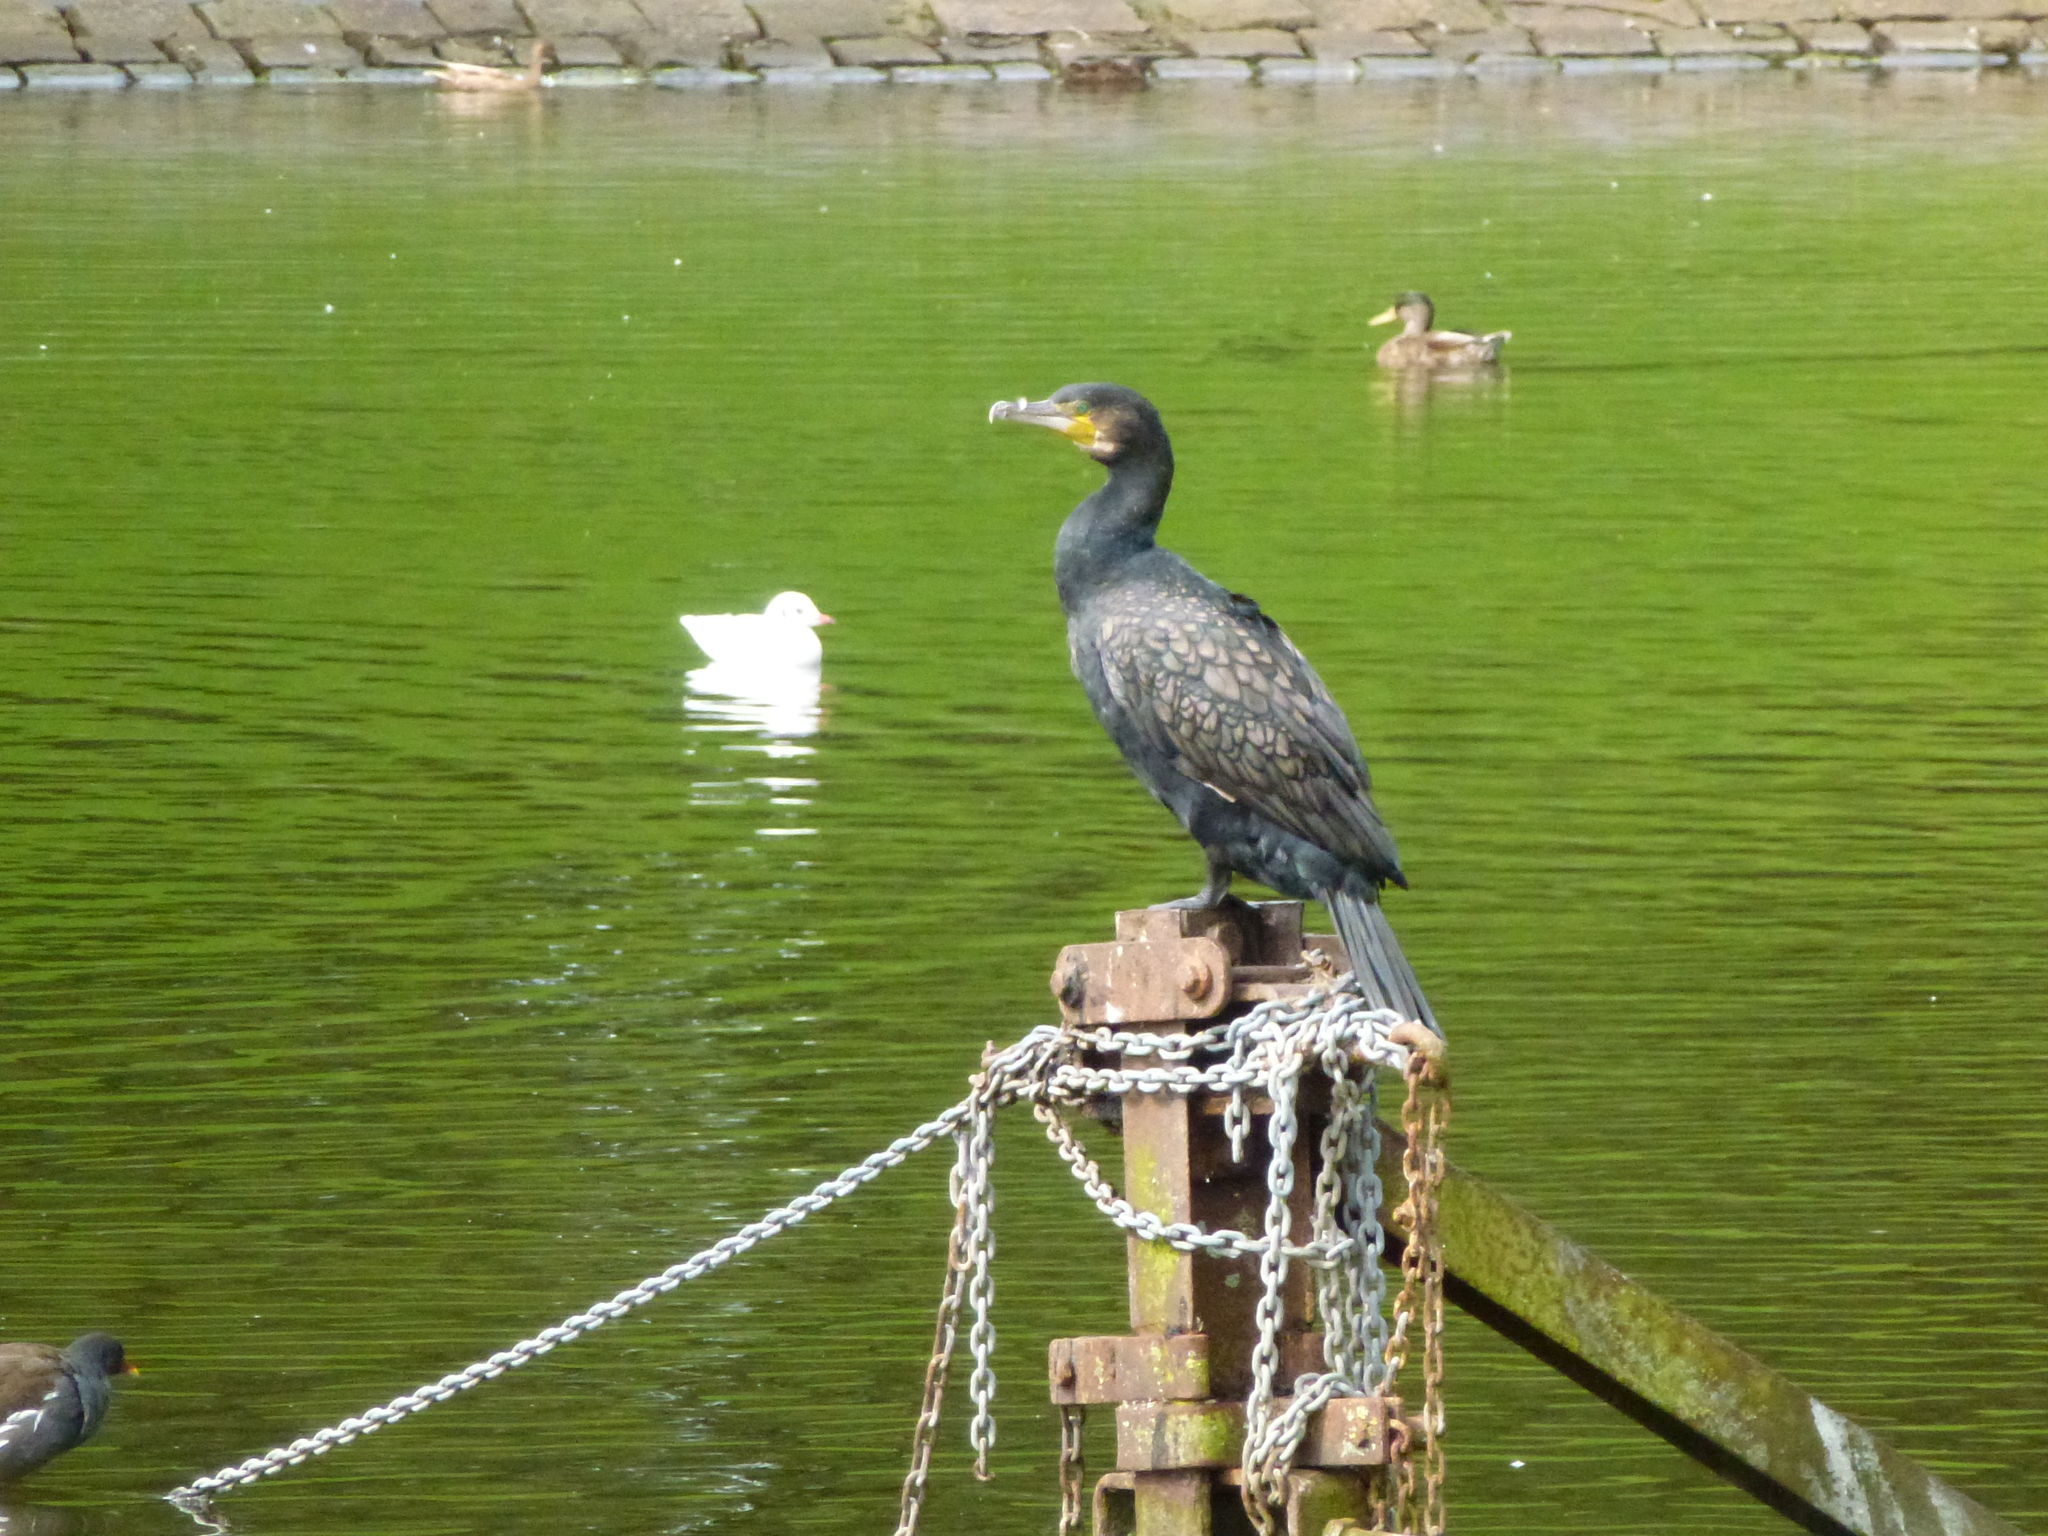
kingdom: Animalia
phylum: Chordata
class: Aves
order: Suliformes
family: Phalacrocoracidae
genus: Phalacrocorax
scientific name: Phalacrocorax carbo
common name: Great cormorant
